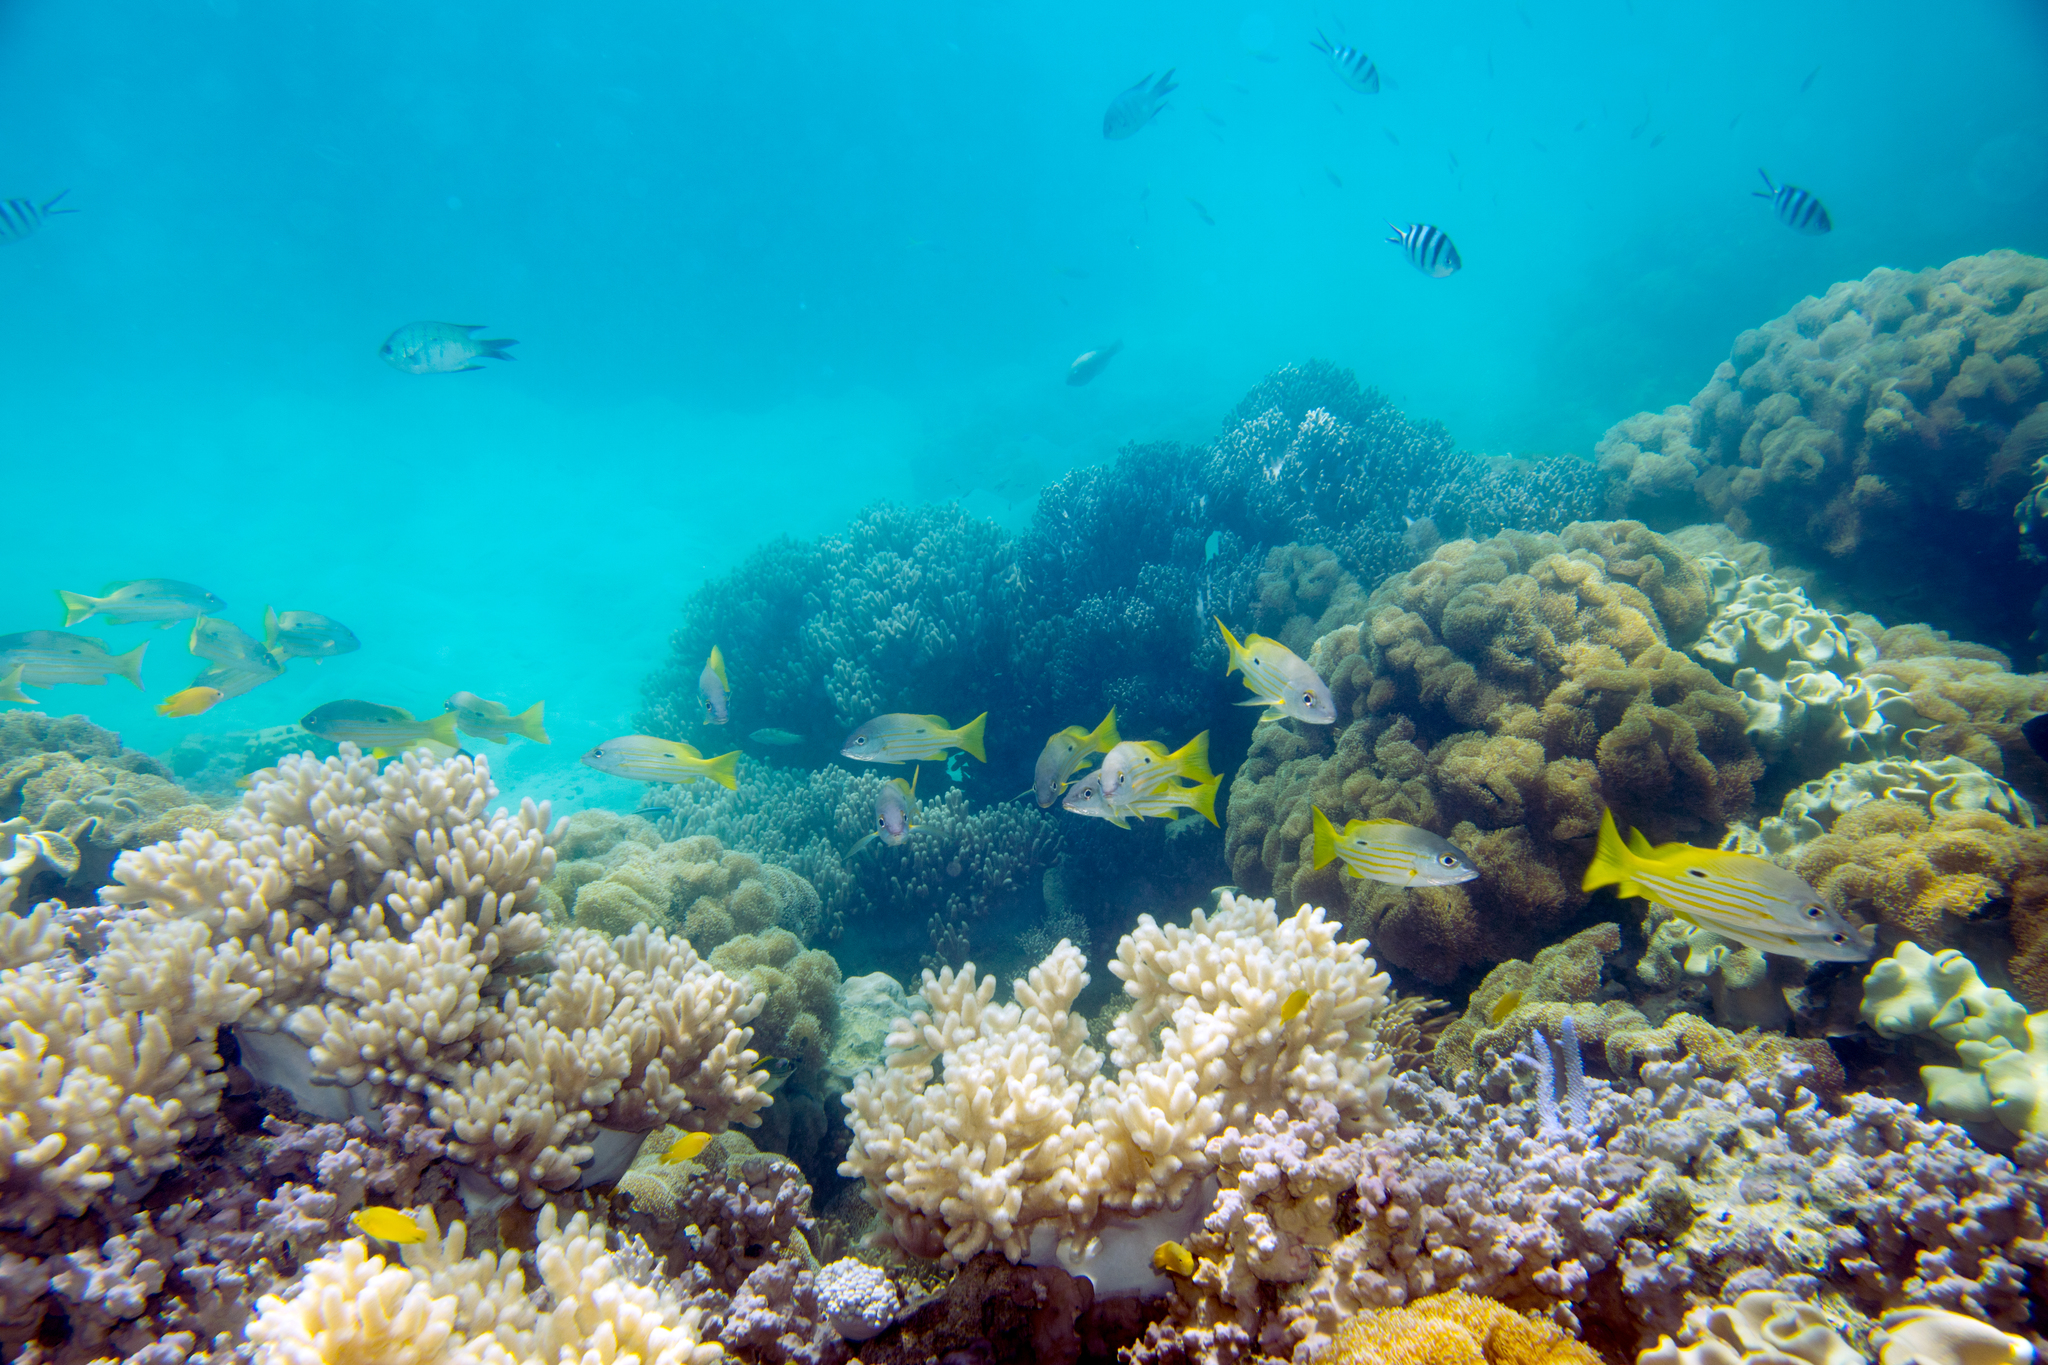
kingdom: Animalia
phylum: Chordata
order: Perciformes
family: Lutjanidae
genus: Lutjanus
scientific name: Lutjanus fulviflamma
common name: Blackspot snapper
